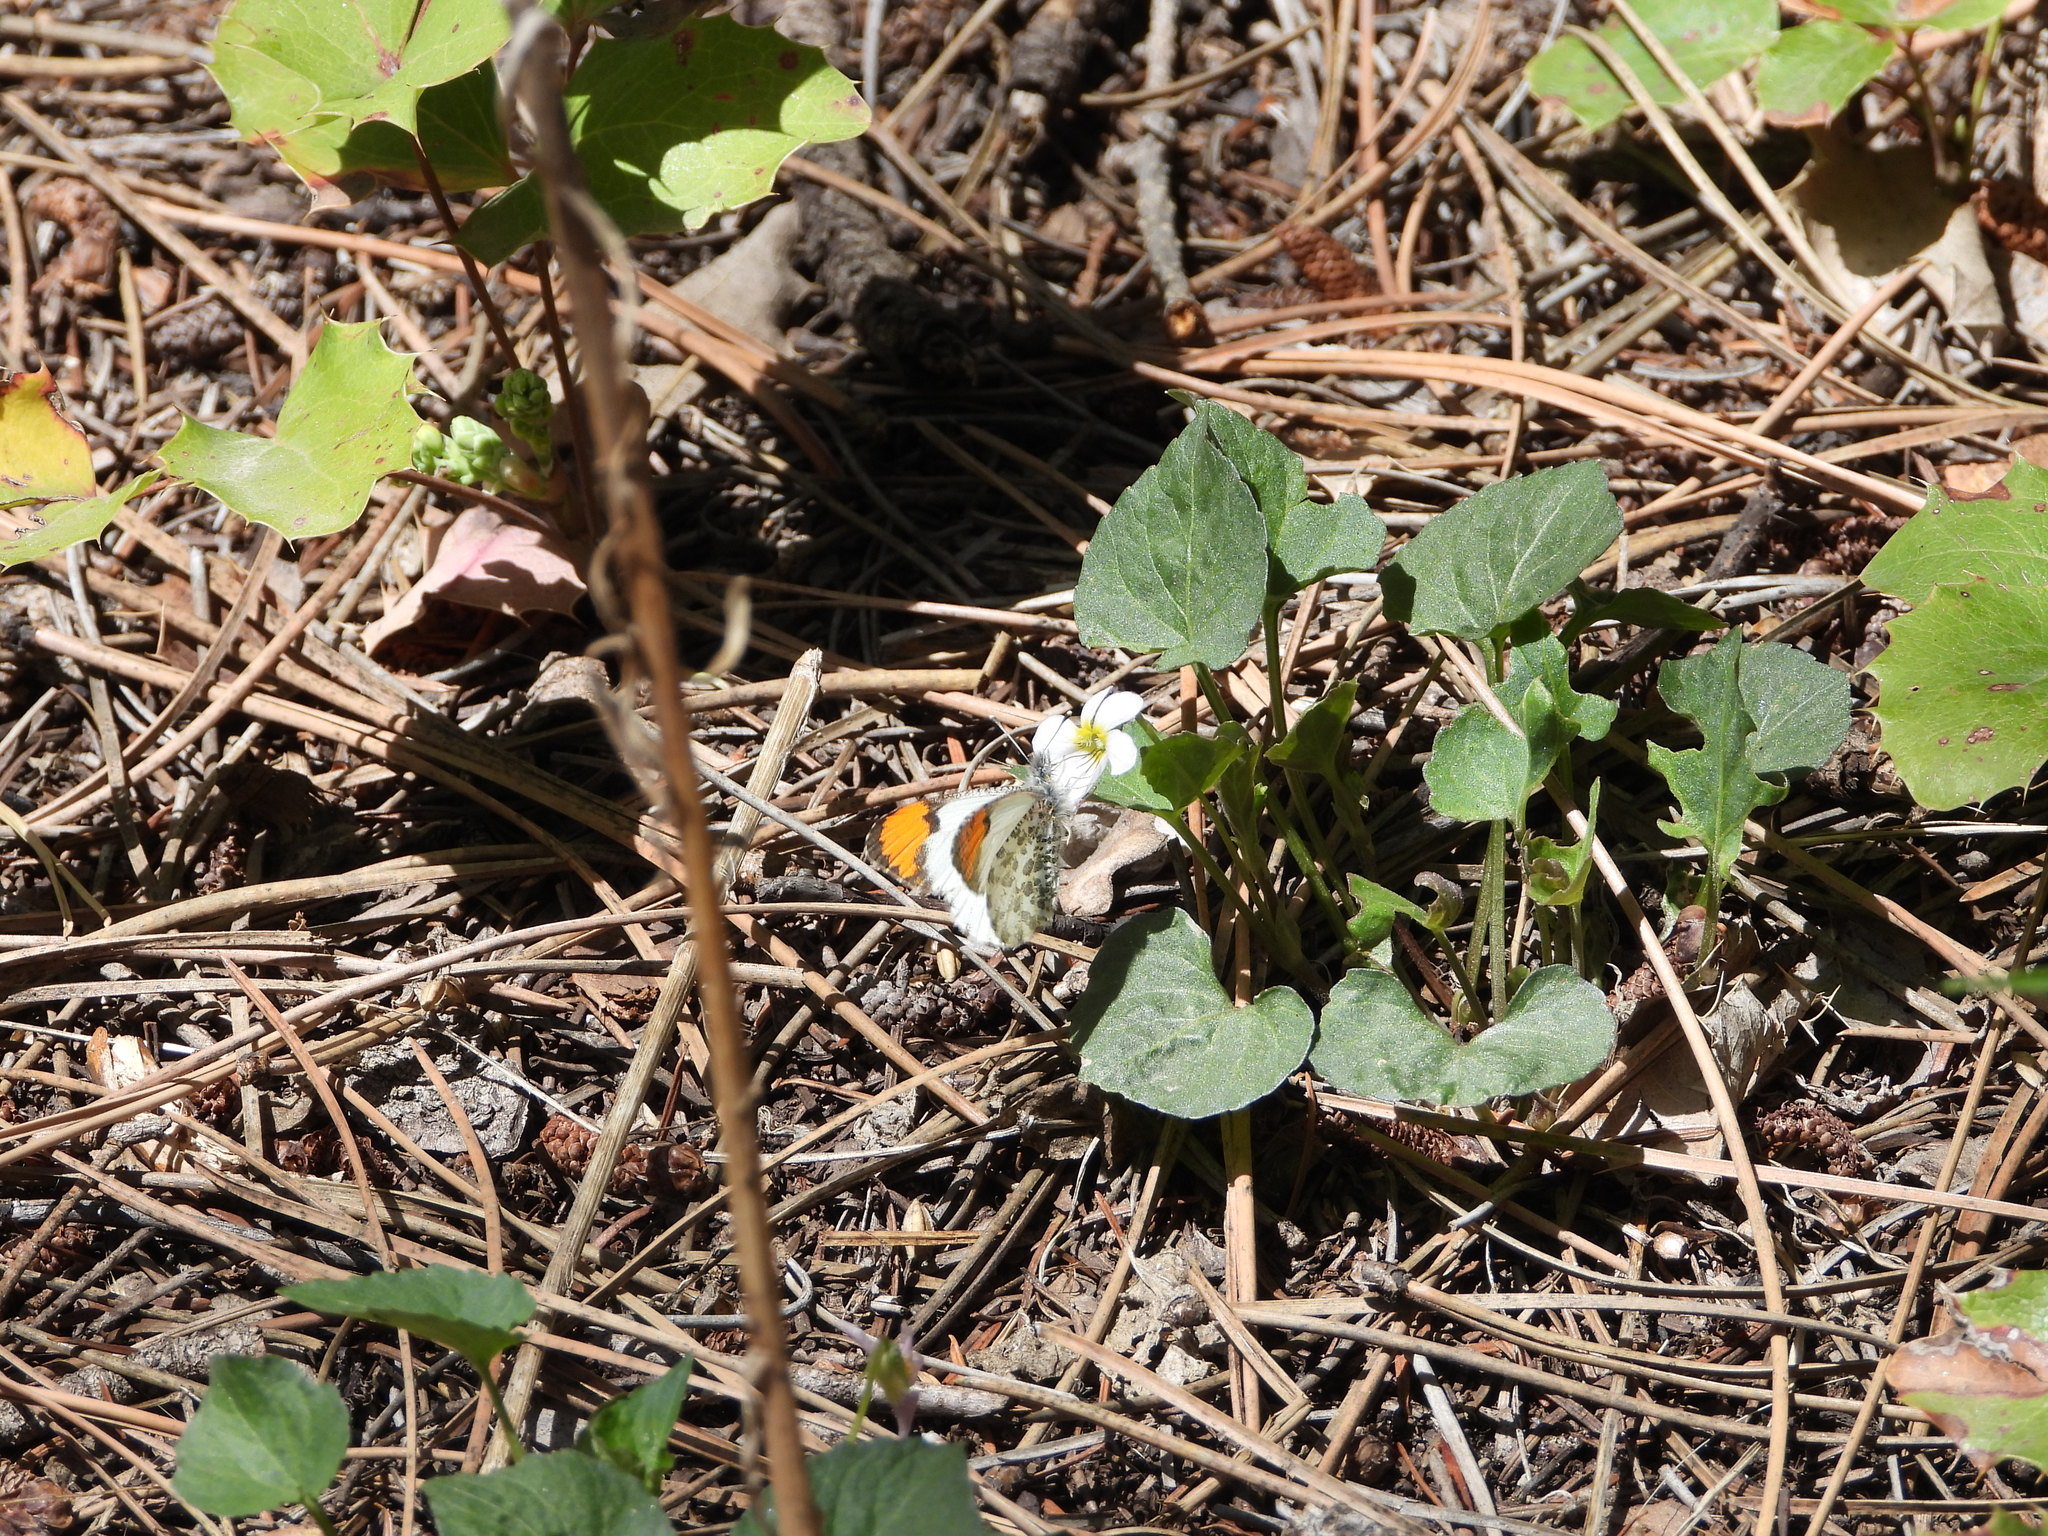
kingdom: Animalia
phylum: Arthropoda
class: Insecta
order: Lepidoptera
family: Pieridae
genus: Anthocharis
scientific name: Anthocharis julia
